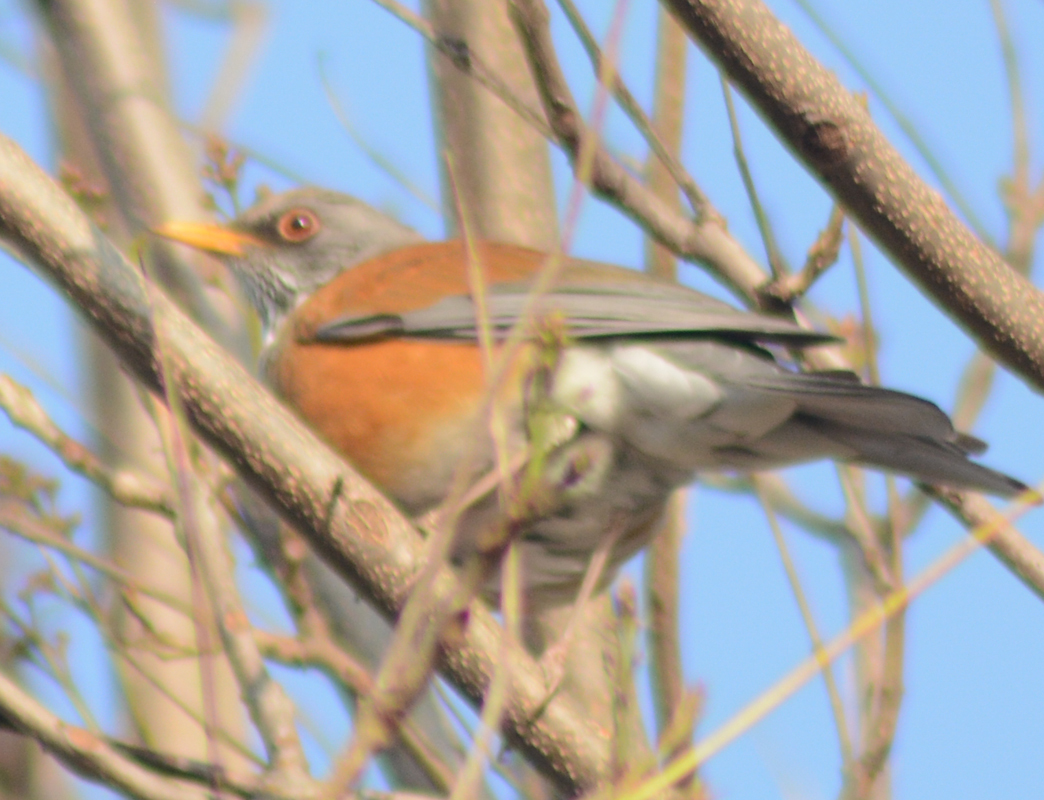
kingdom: Animalia
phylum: Chordata
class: Aves
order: Passeriformes
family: Turdidae
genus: Turdus
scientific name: Turdus rufopalliatus
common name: Rufous-backed robin
